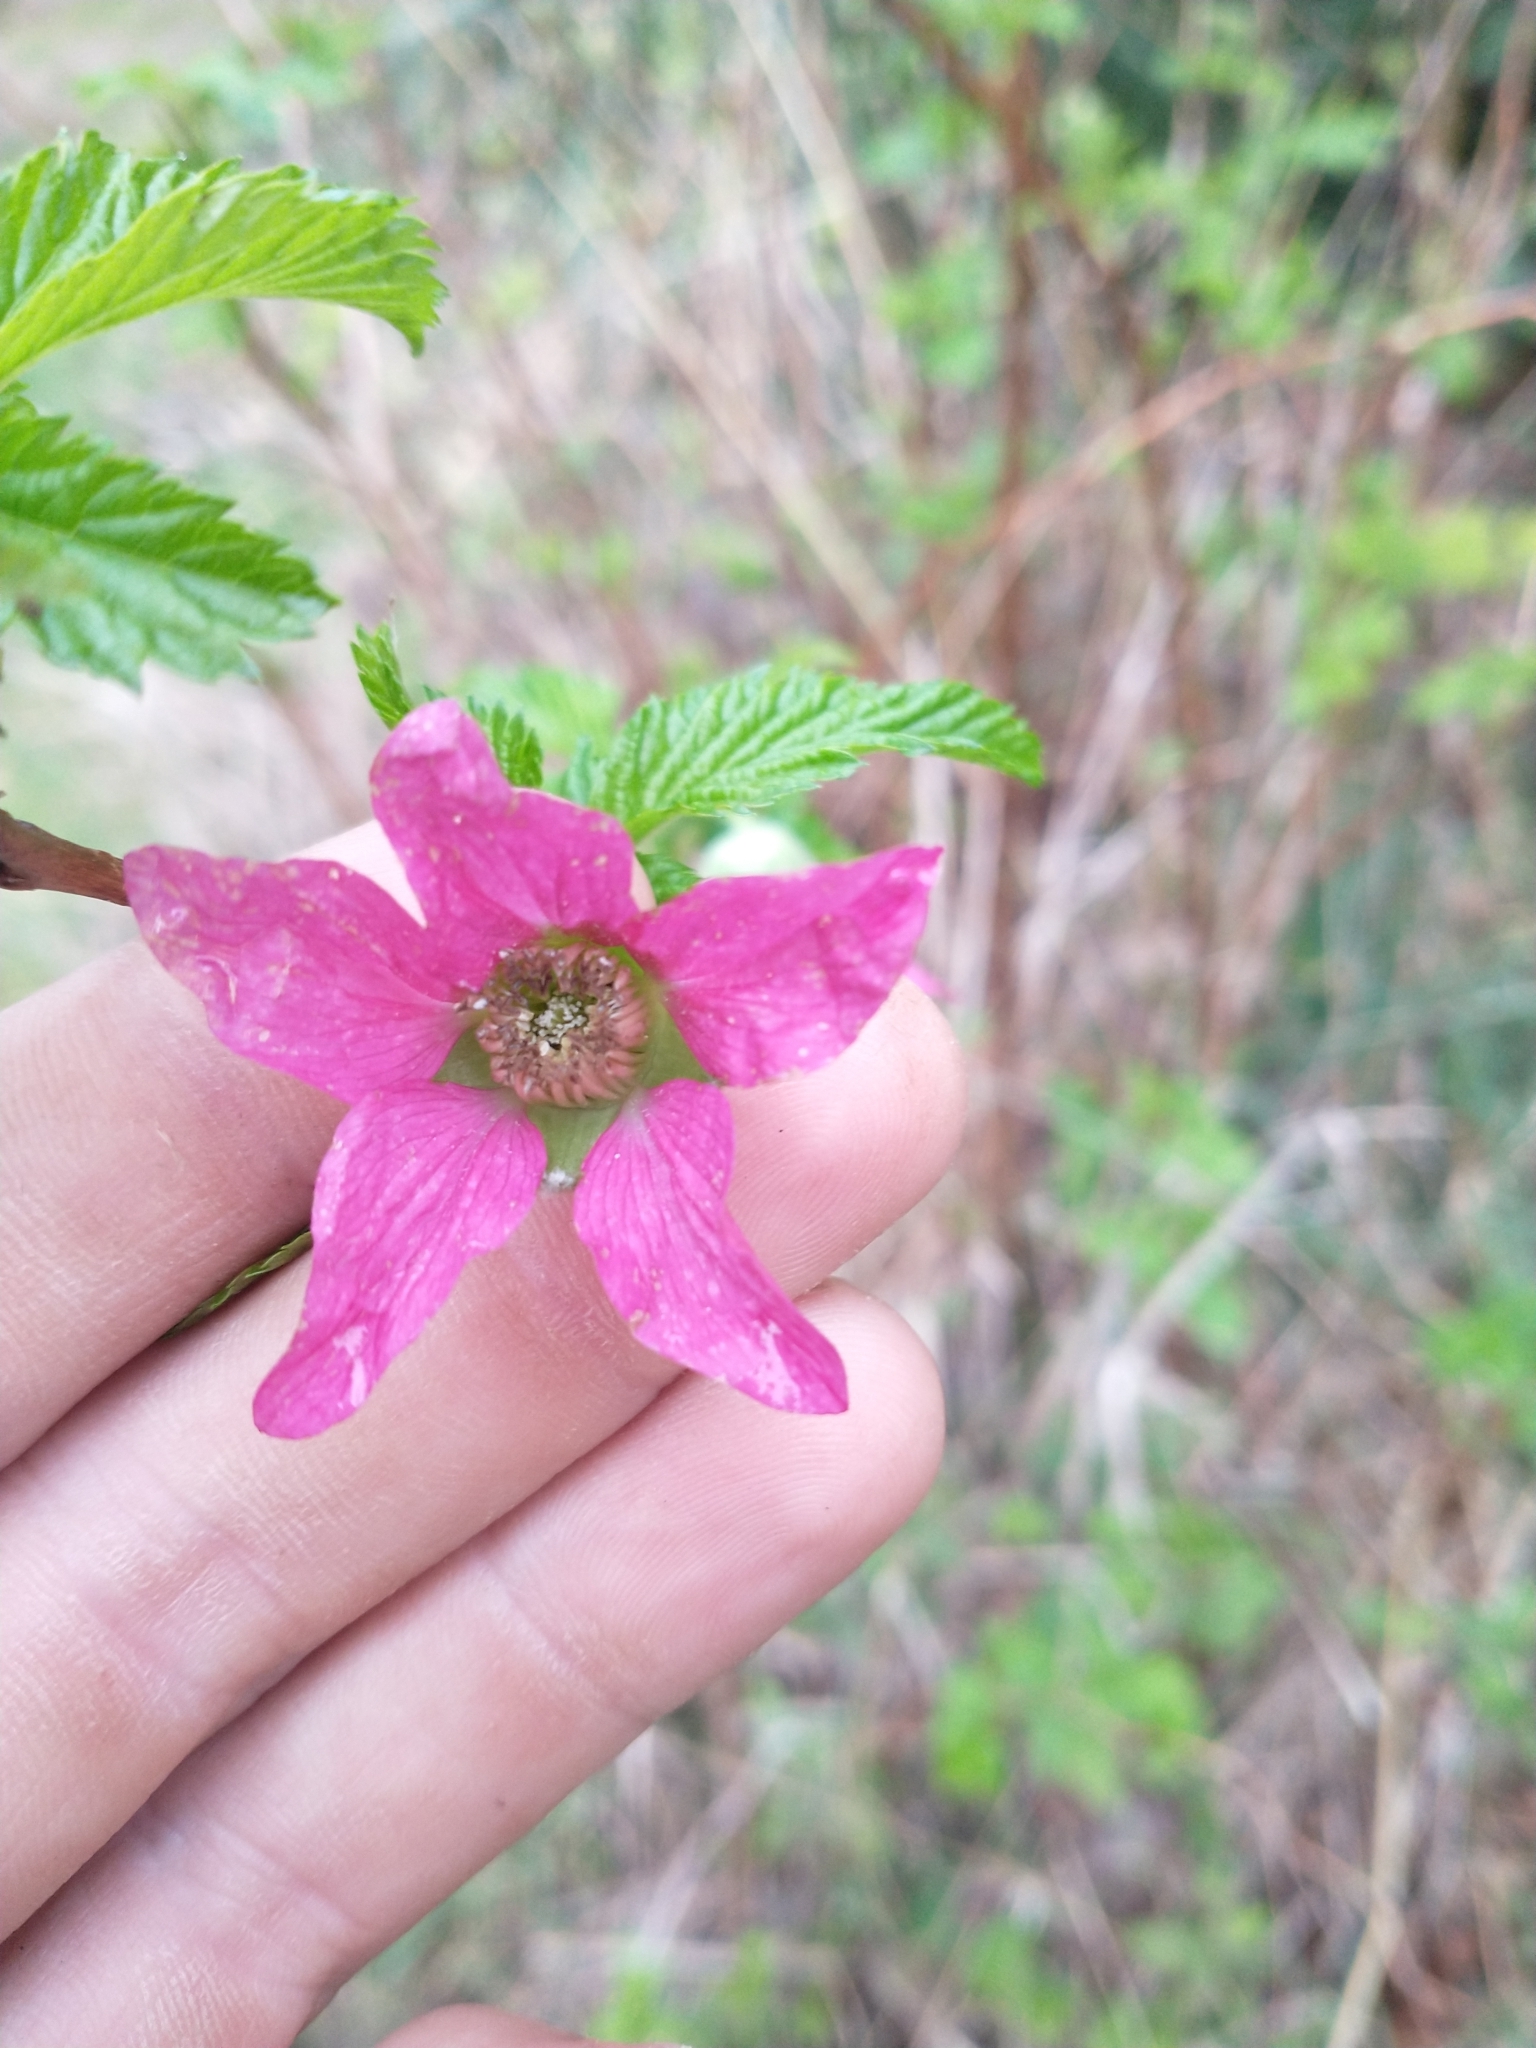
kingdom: Plantae
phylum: Tracheophyta
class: Magnoliopsida
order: Rosales
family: Rosaceae
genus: Rubus
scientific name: Rubus spectabilis
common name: Salmonberry
